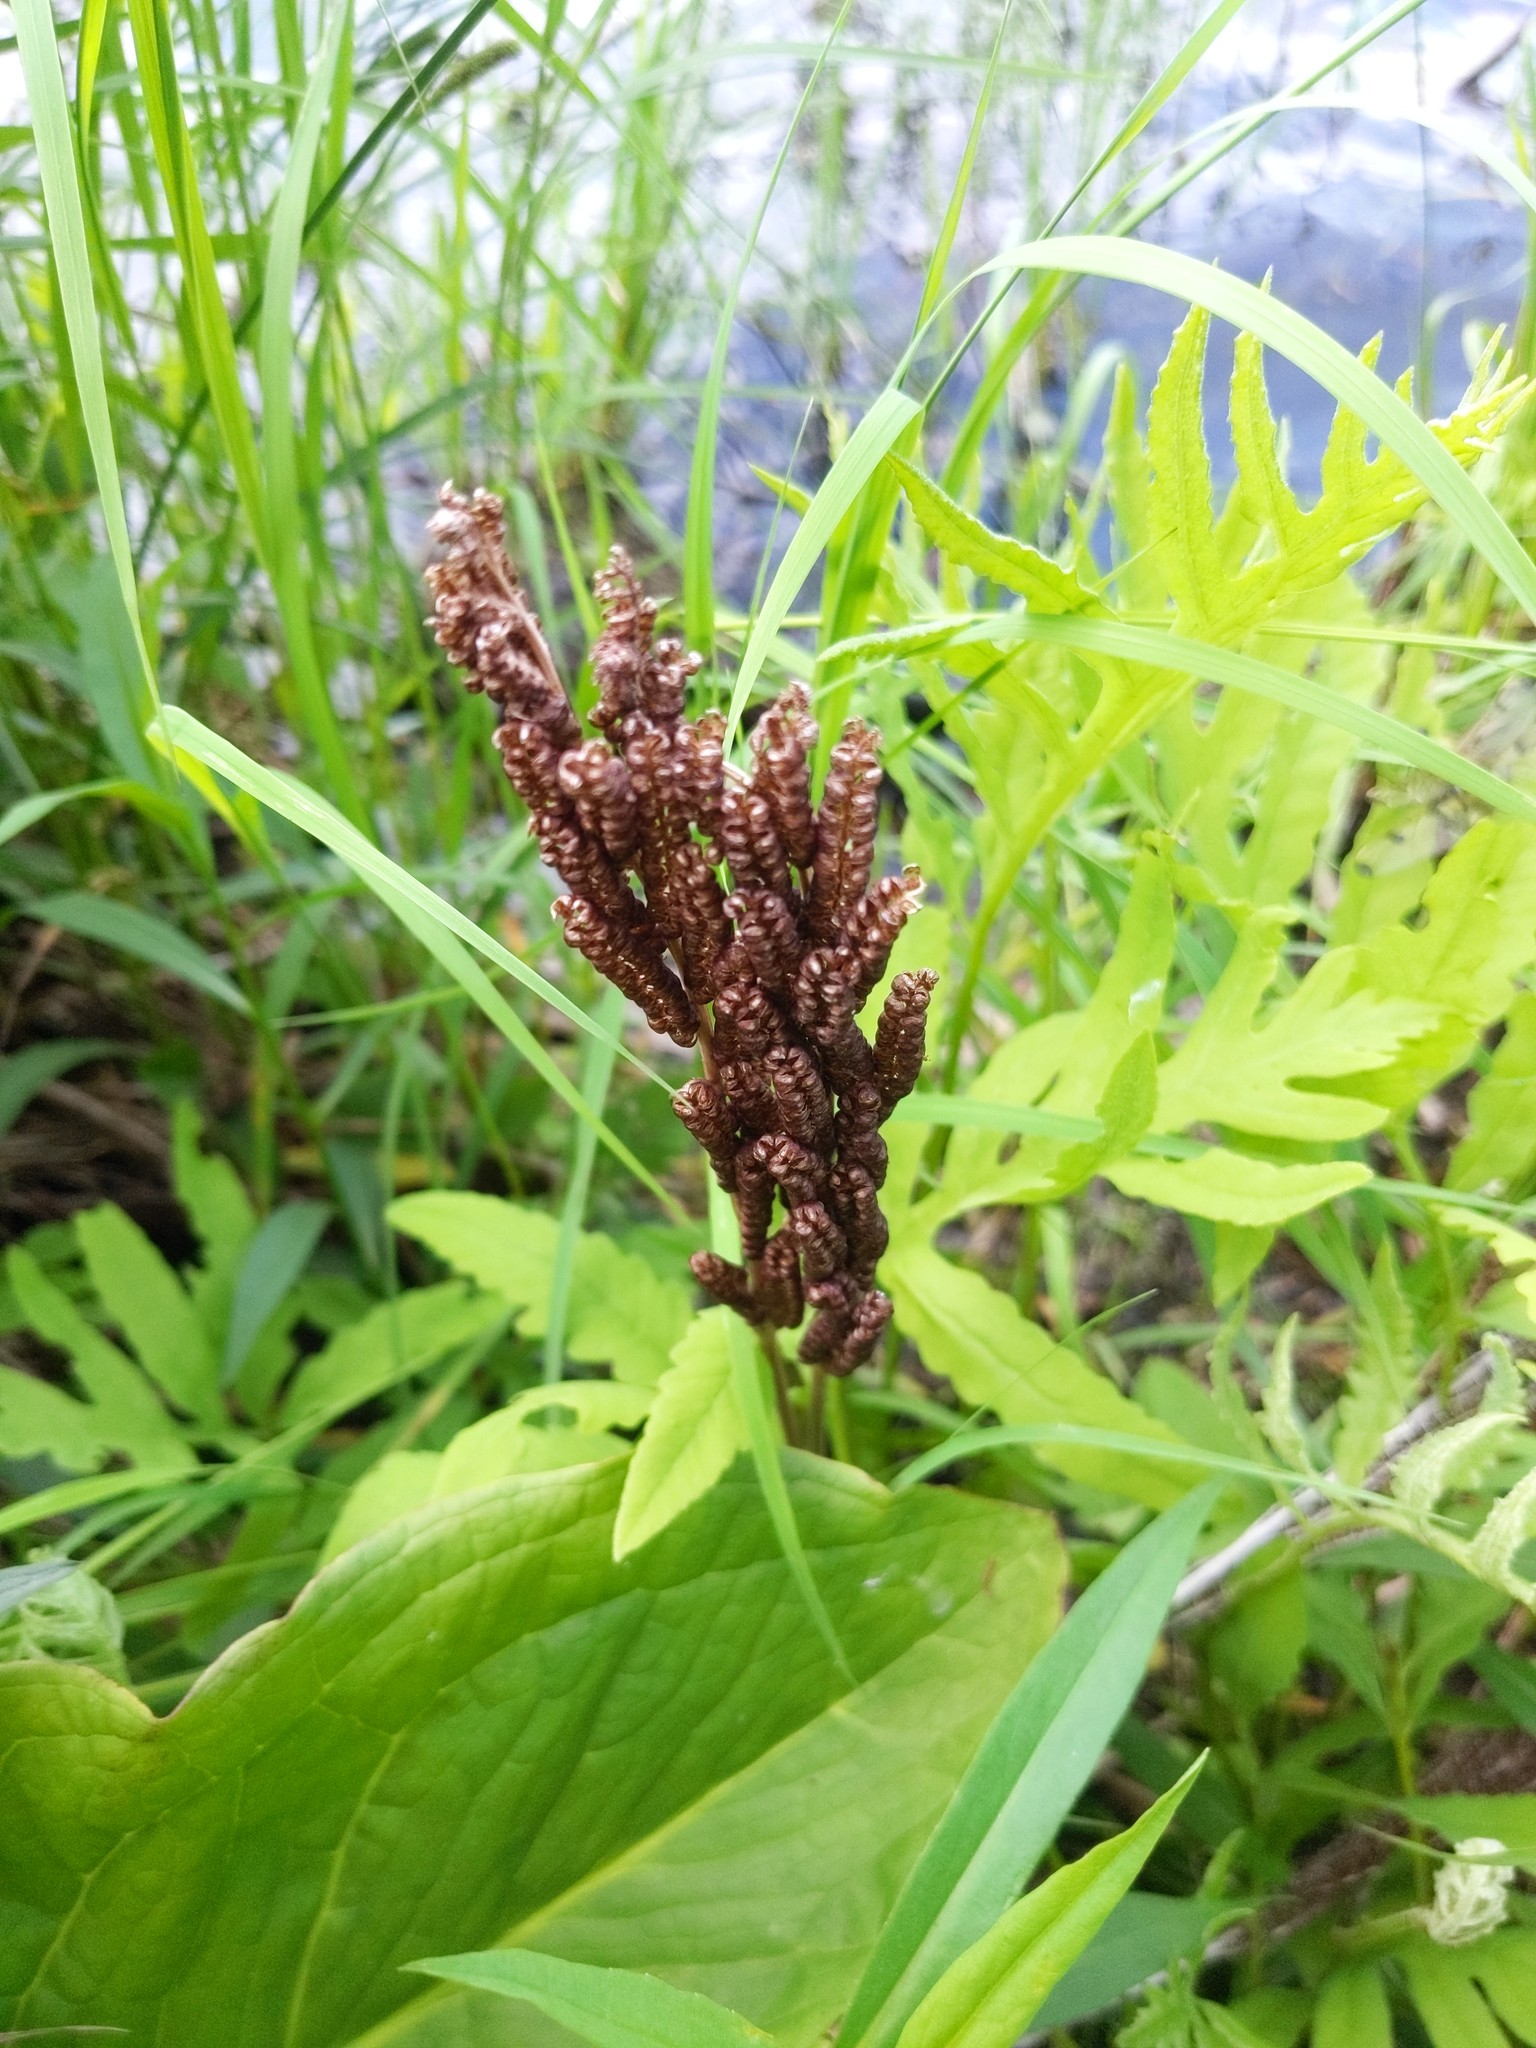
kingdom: Plantae
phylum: Tracheophyta
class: Polypodiopsida
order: Polypodiales
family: Onocleaceae
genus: Onoclea
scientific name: Onoclea sensibilis
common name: Sensitive fern
